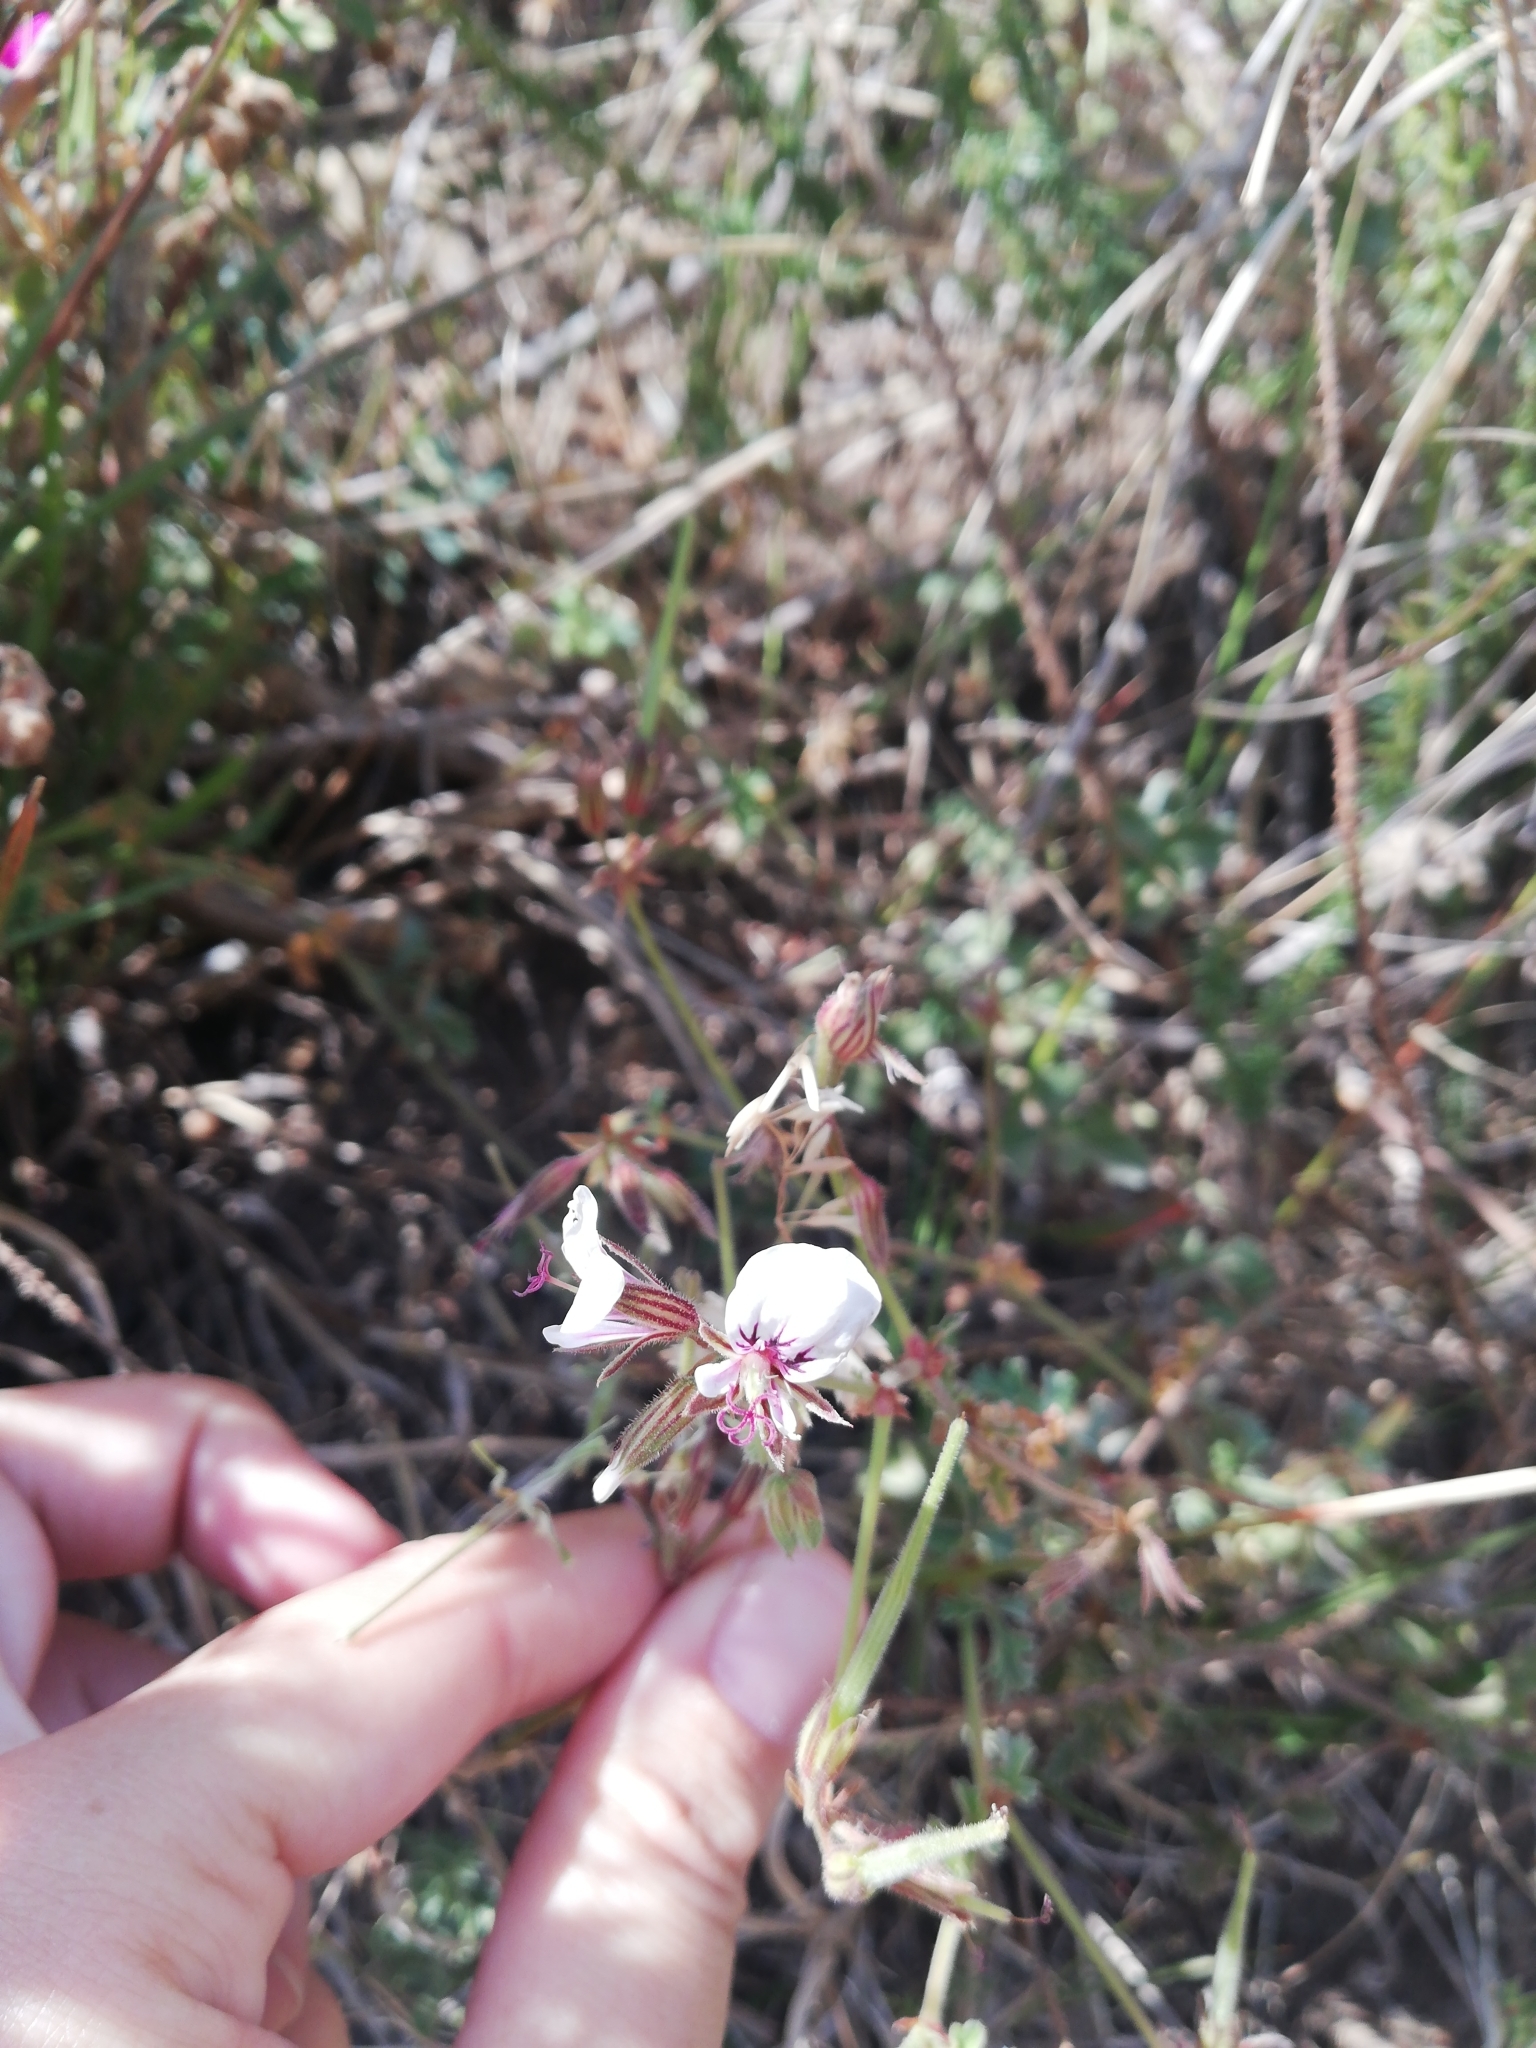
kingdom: Plantae
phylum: Tracheophyta
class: Magnoliopsida
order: Geraniales
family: Geraniaceae
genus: Pelargonium
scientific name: Pelargonium myrrhifolium
